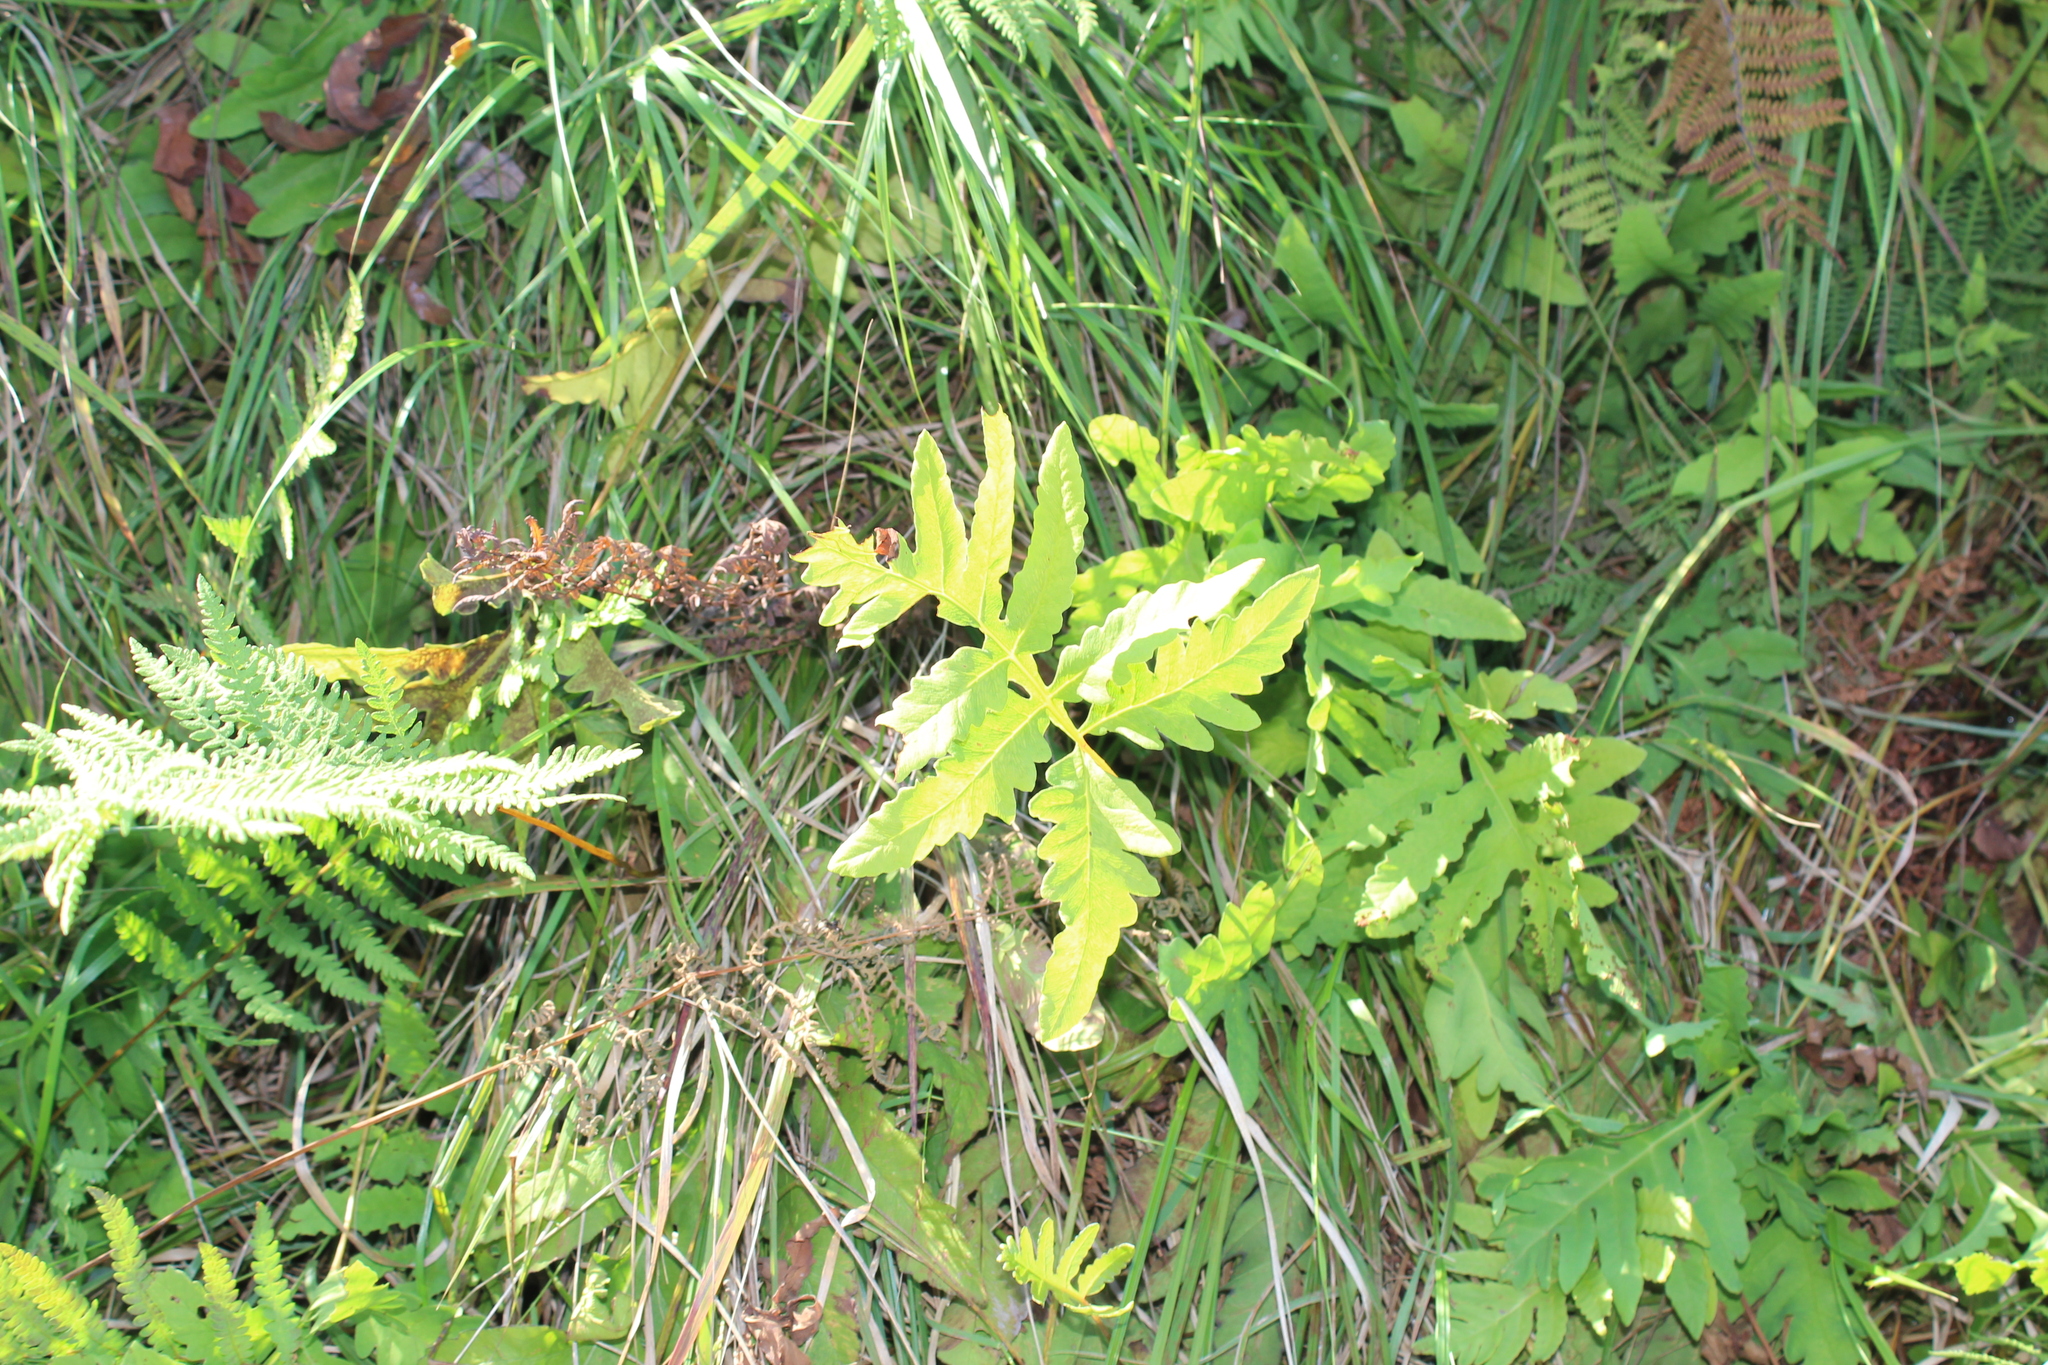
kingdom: Plantae
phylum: Tracheophyta
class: Polypodiopsida
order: Polypodiales
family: Onocleaceae
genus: Onoclea
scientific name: Onoclea sensibilis
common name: Sensitive fern
